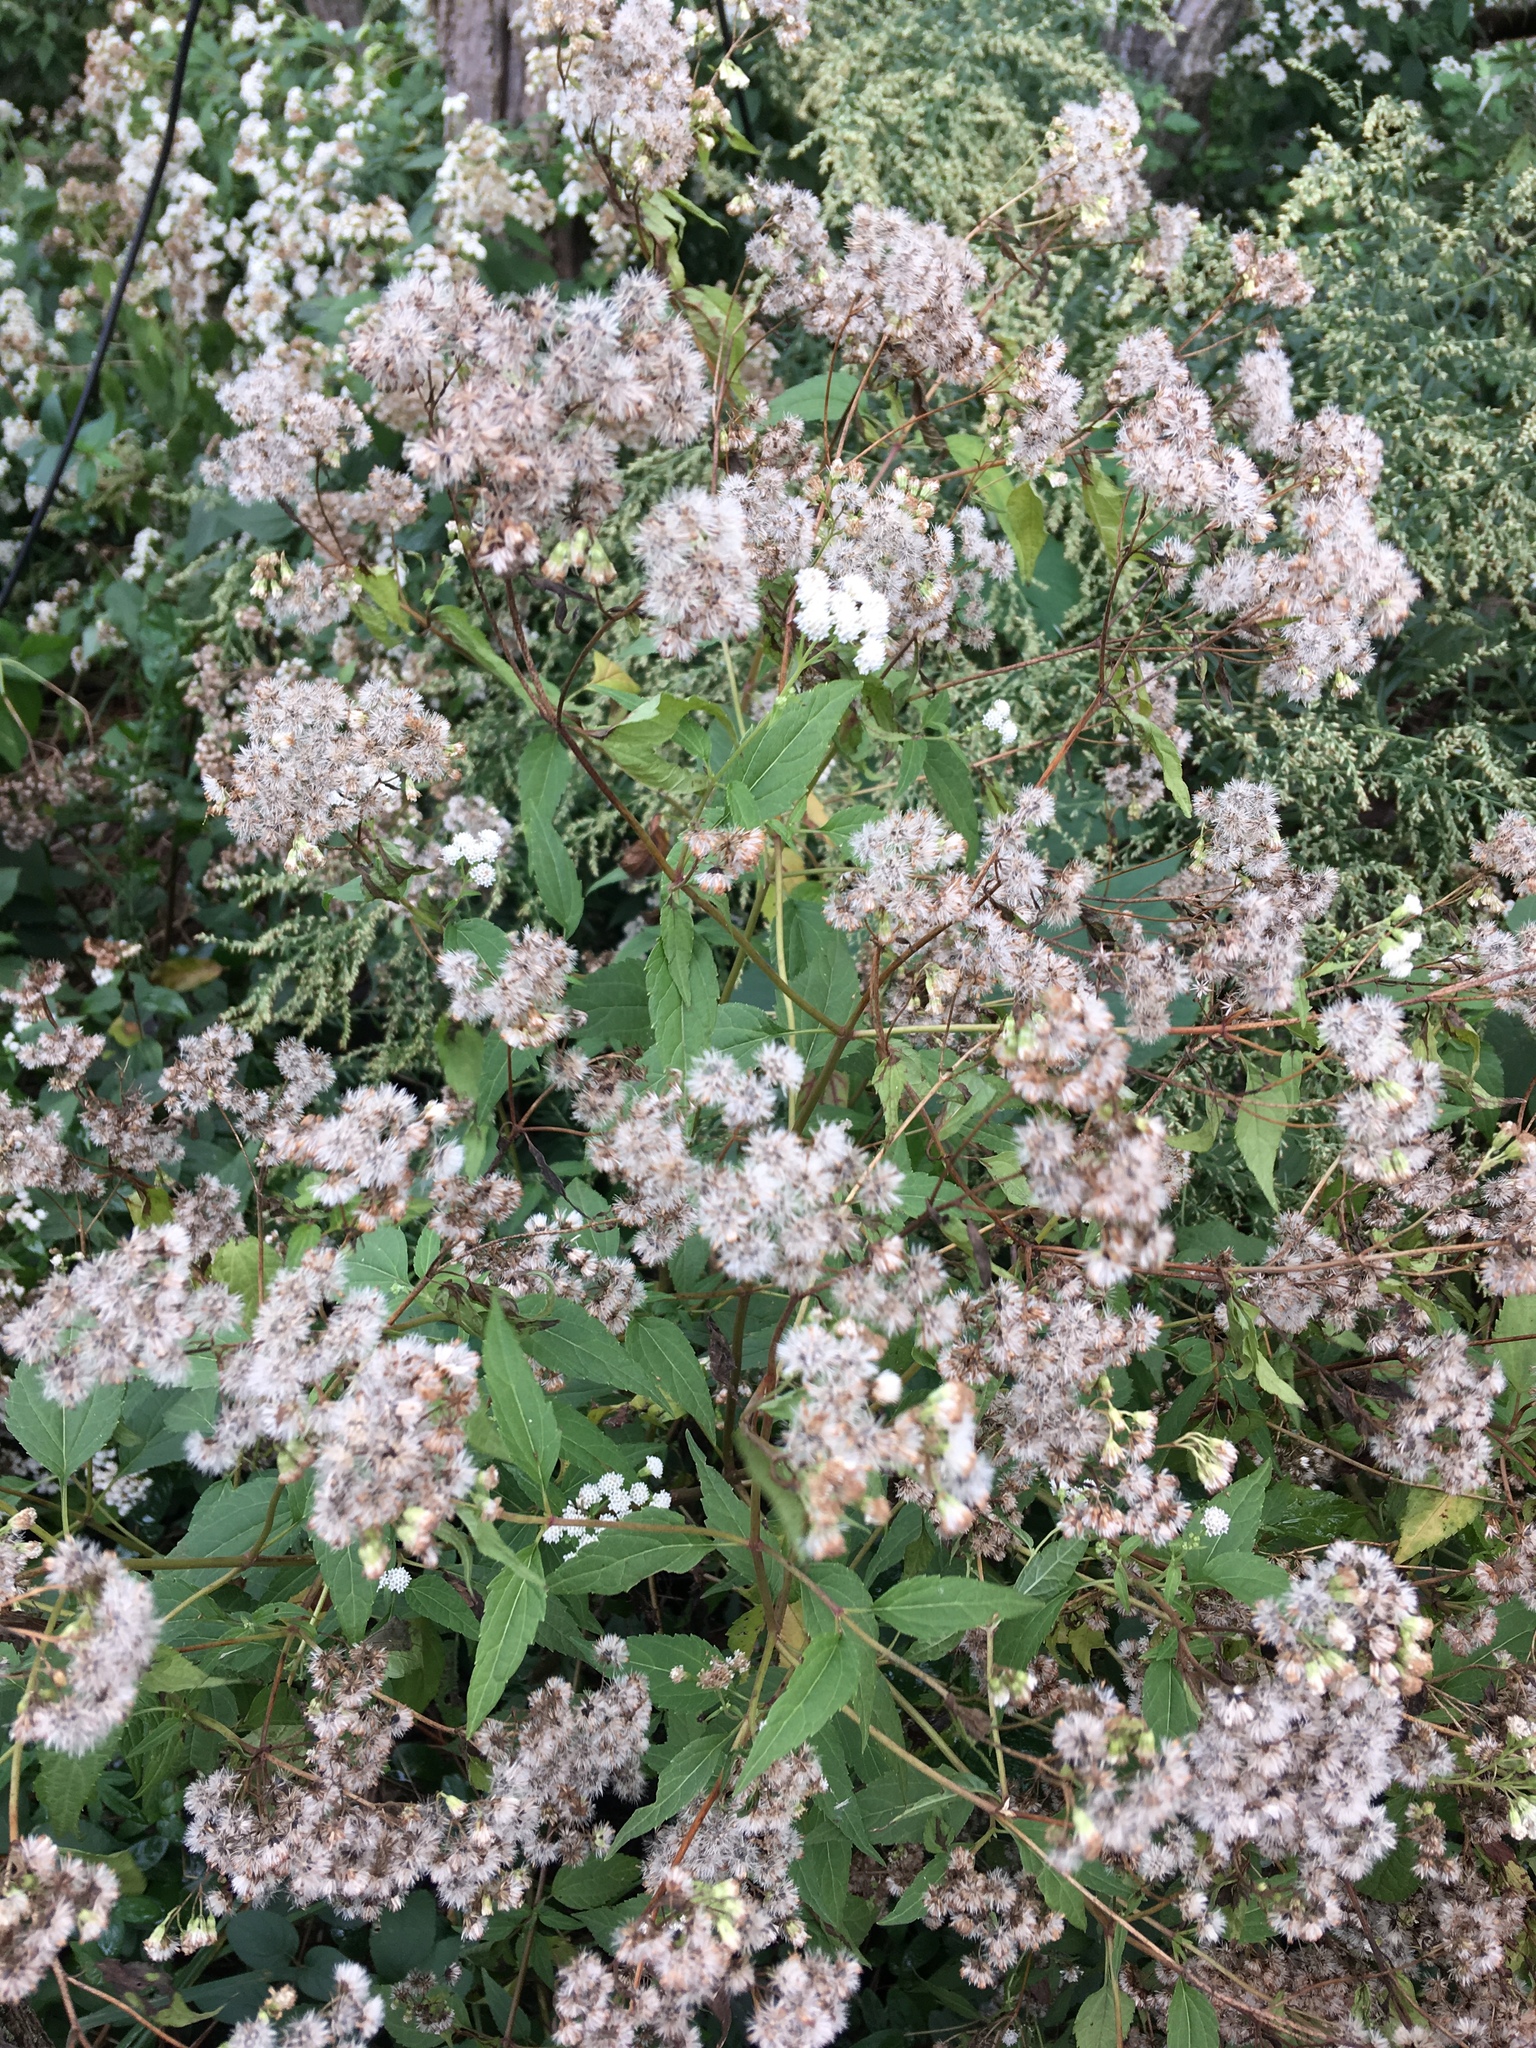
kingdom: Plantae
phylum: Tracheophyta
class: Magnoliopsida
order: Asterales
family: Asteraceae
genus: Ageratina
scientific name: Ageratina altissima
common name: White snakeroot
